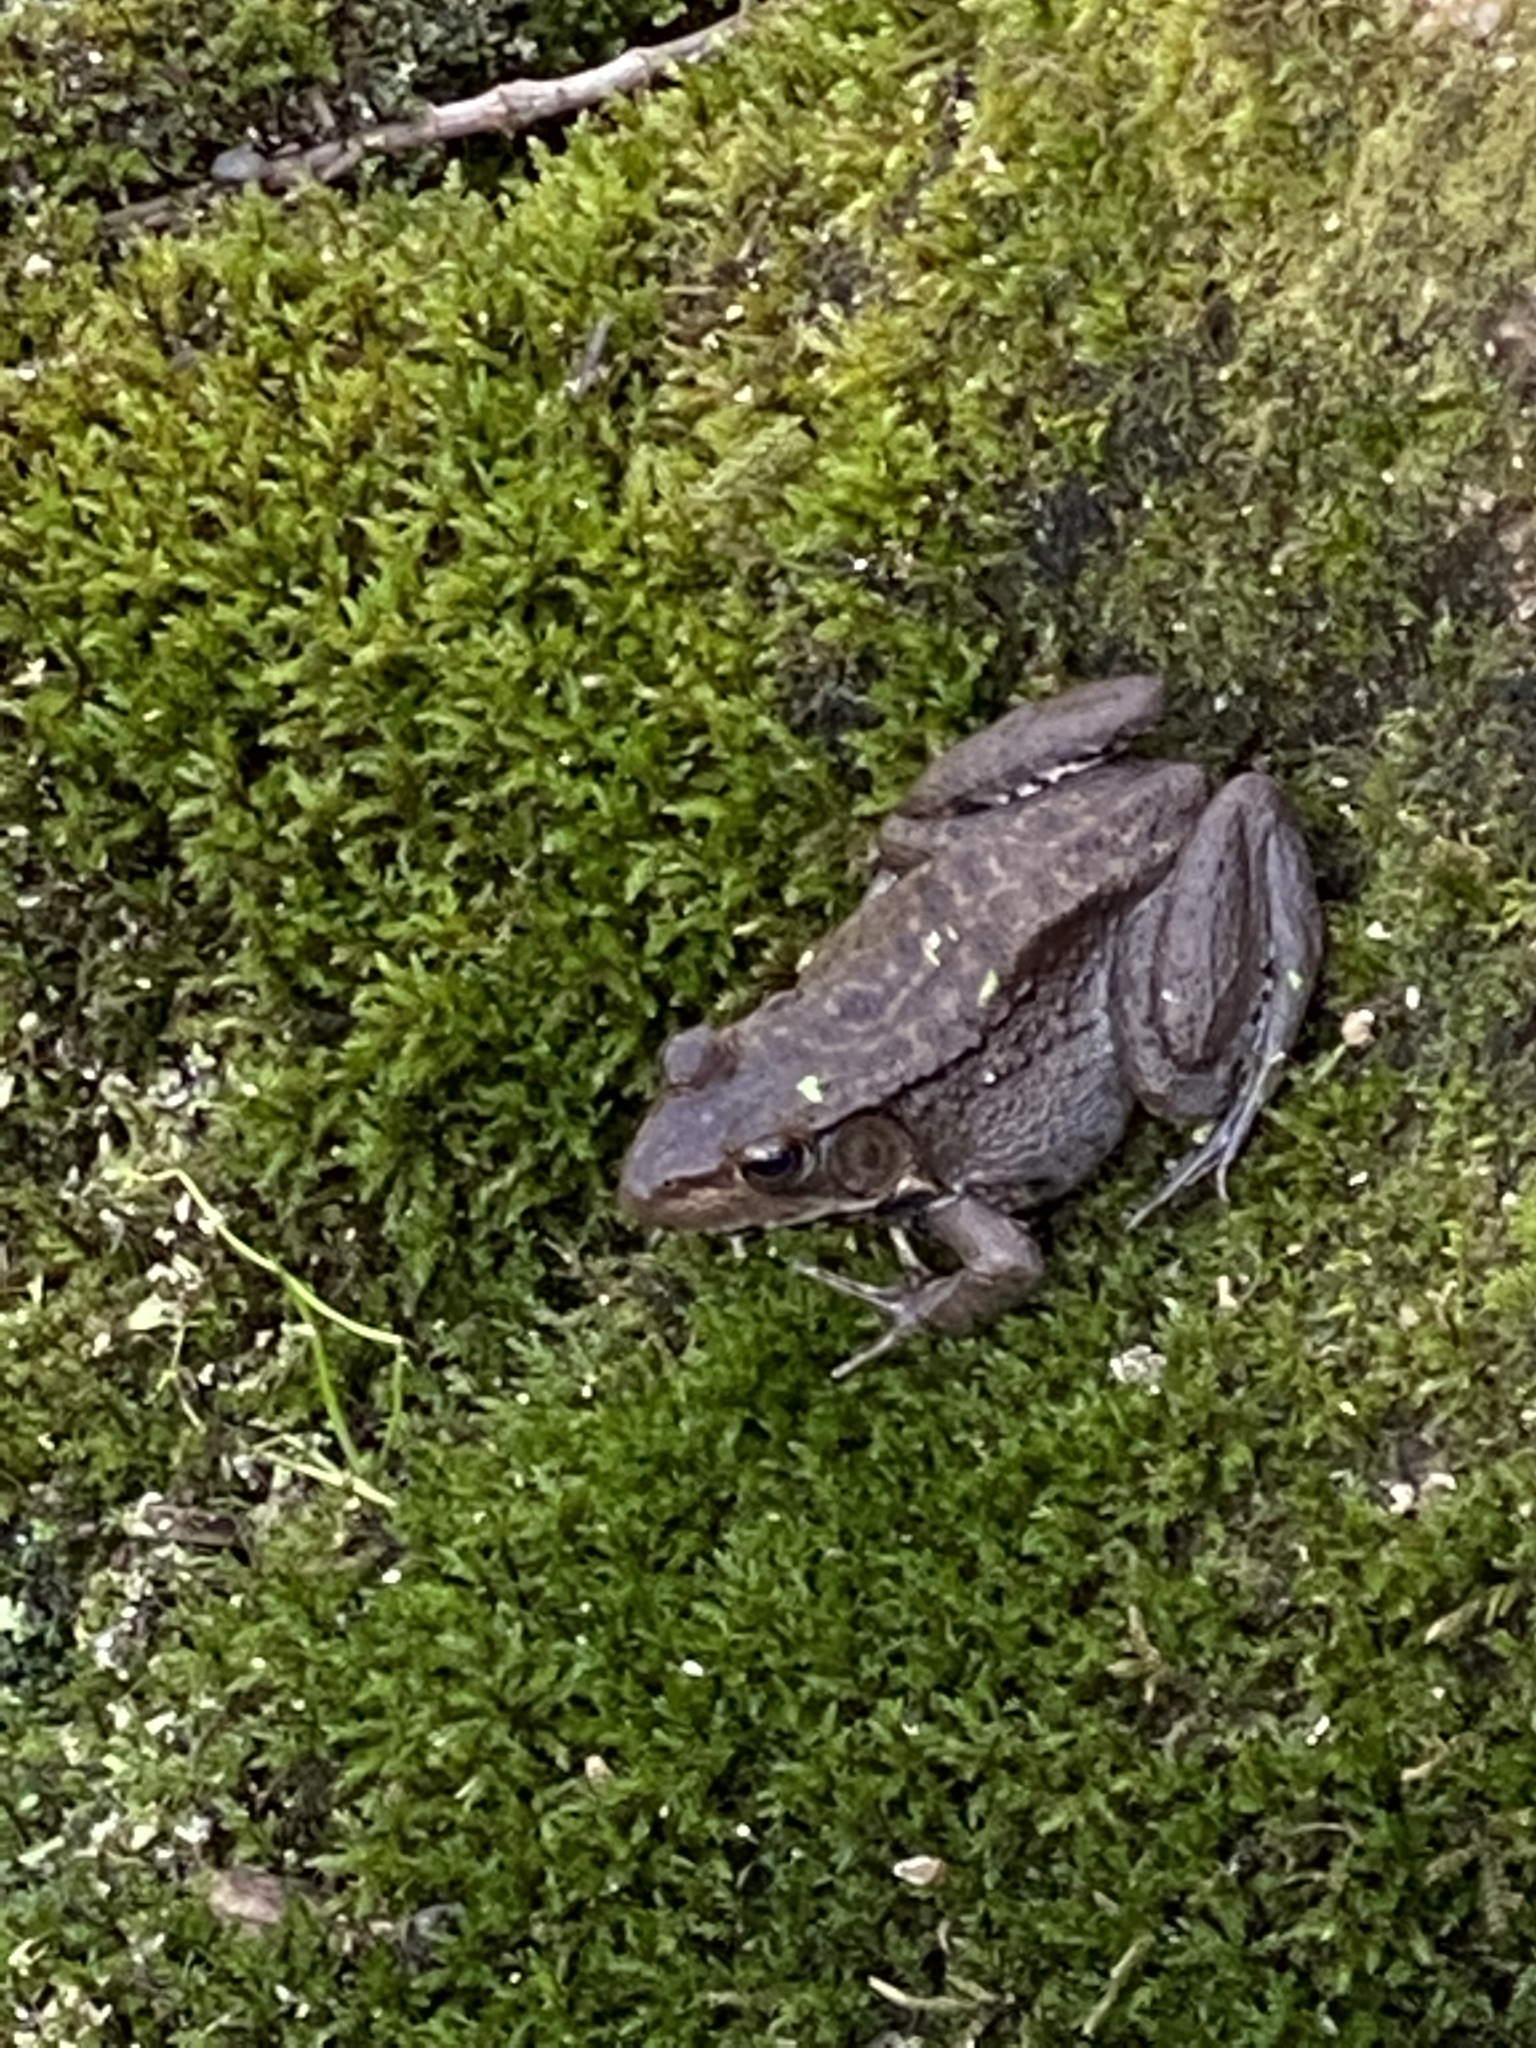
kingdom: Animalia
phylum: Chordata
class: Amphibia
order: Anura
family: Ranidae
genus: Lithobates
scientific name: Lithobates clamitans
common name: Green frog
